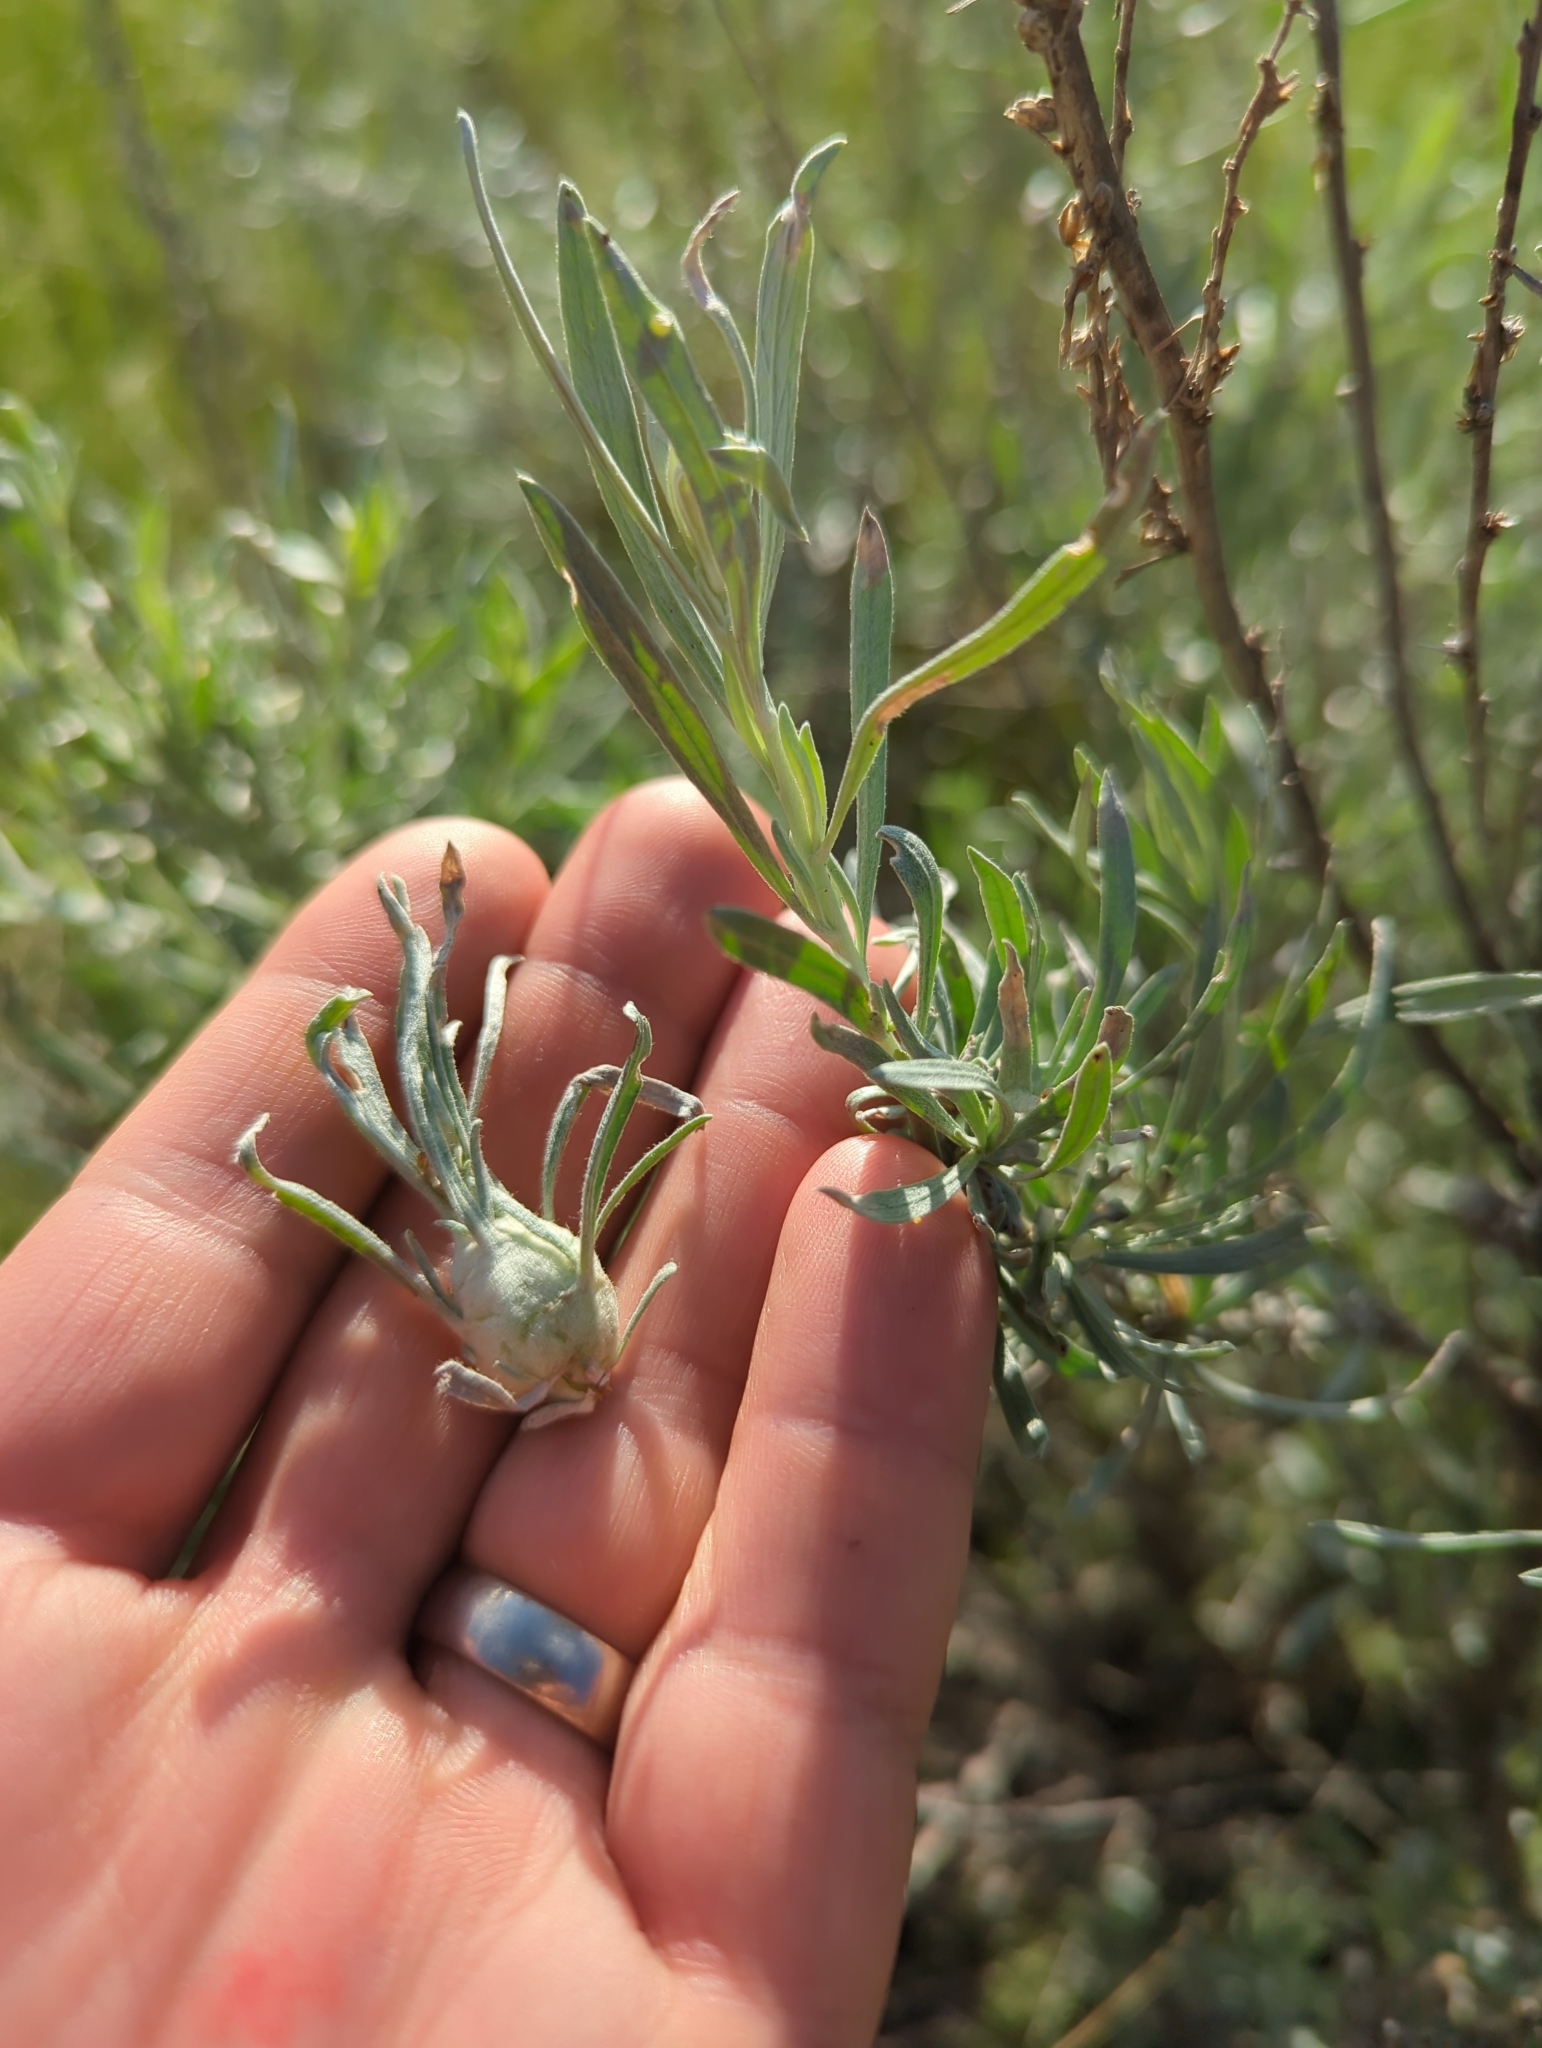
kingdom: Animalia
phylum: Arthropoda
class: Insecta
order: Diptera
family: Tephritidae
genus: Eutreta
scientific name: Eutreta diana
